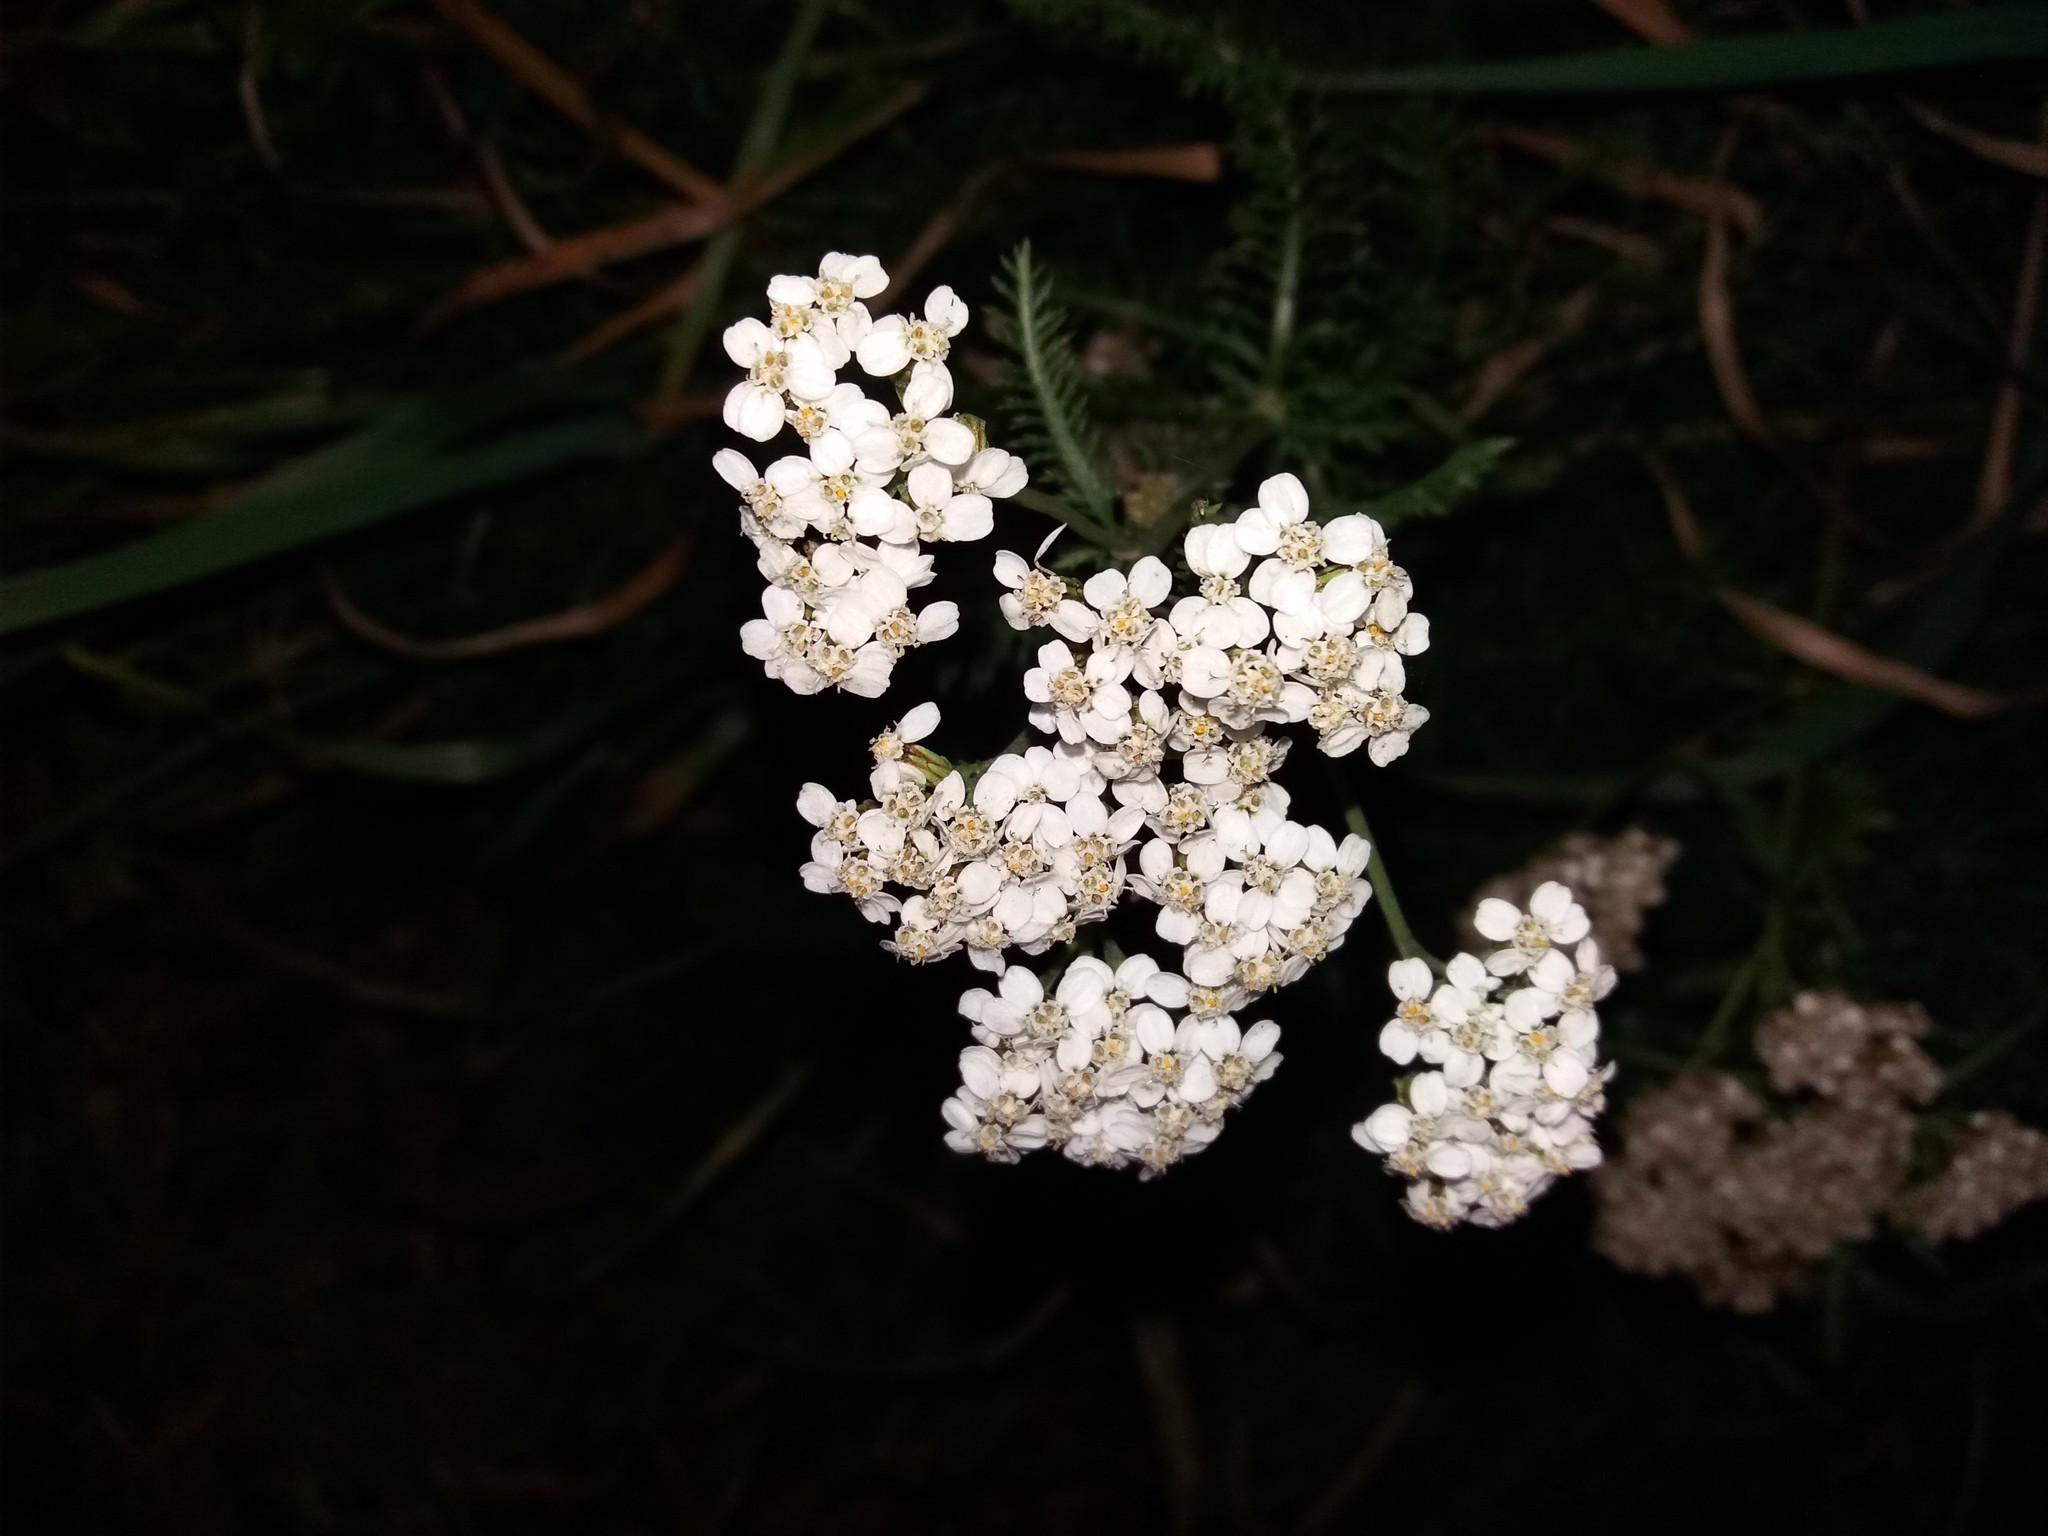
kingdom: Plantae
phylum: Tracheophyta
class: Magnoliopsida
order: Asterales
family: Asteraceae
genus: Achillea
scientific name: Achillea millefolium
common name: Yarrow
